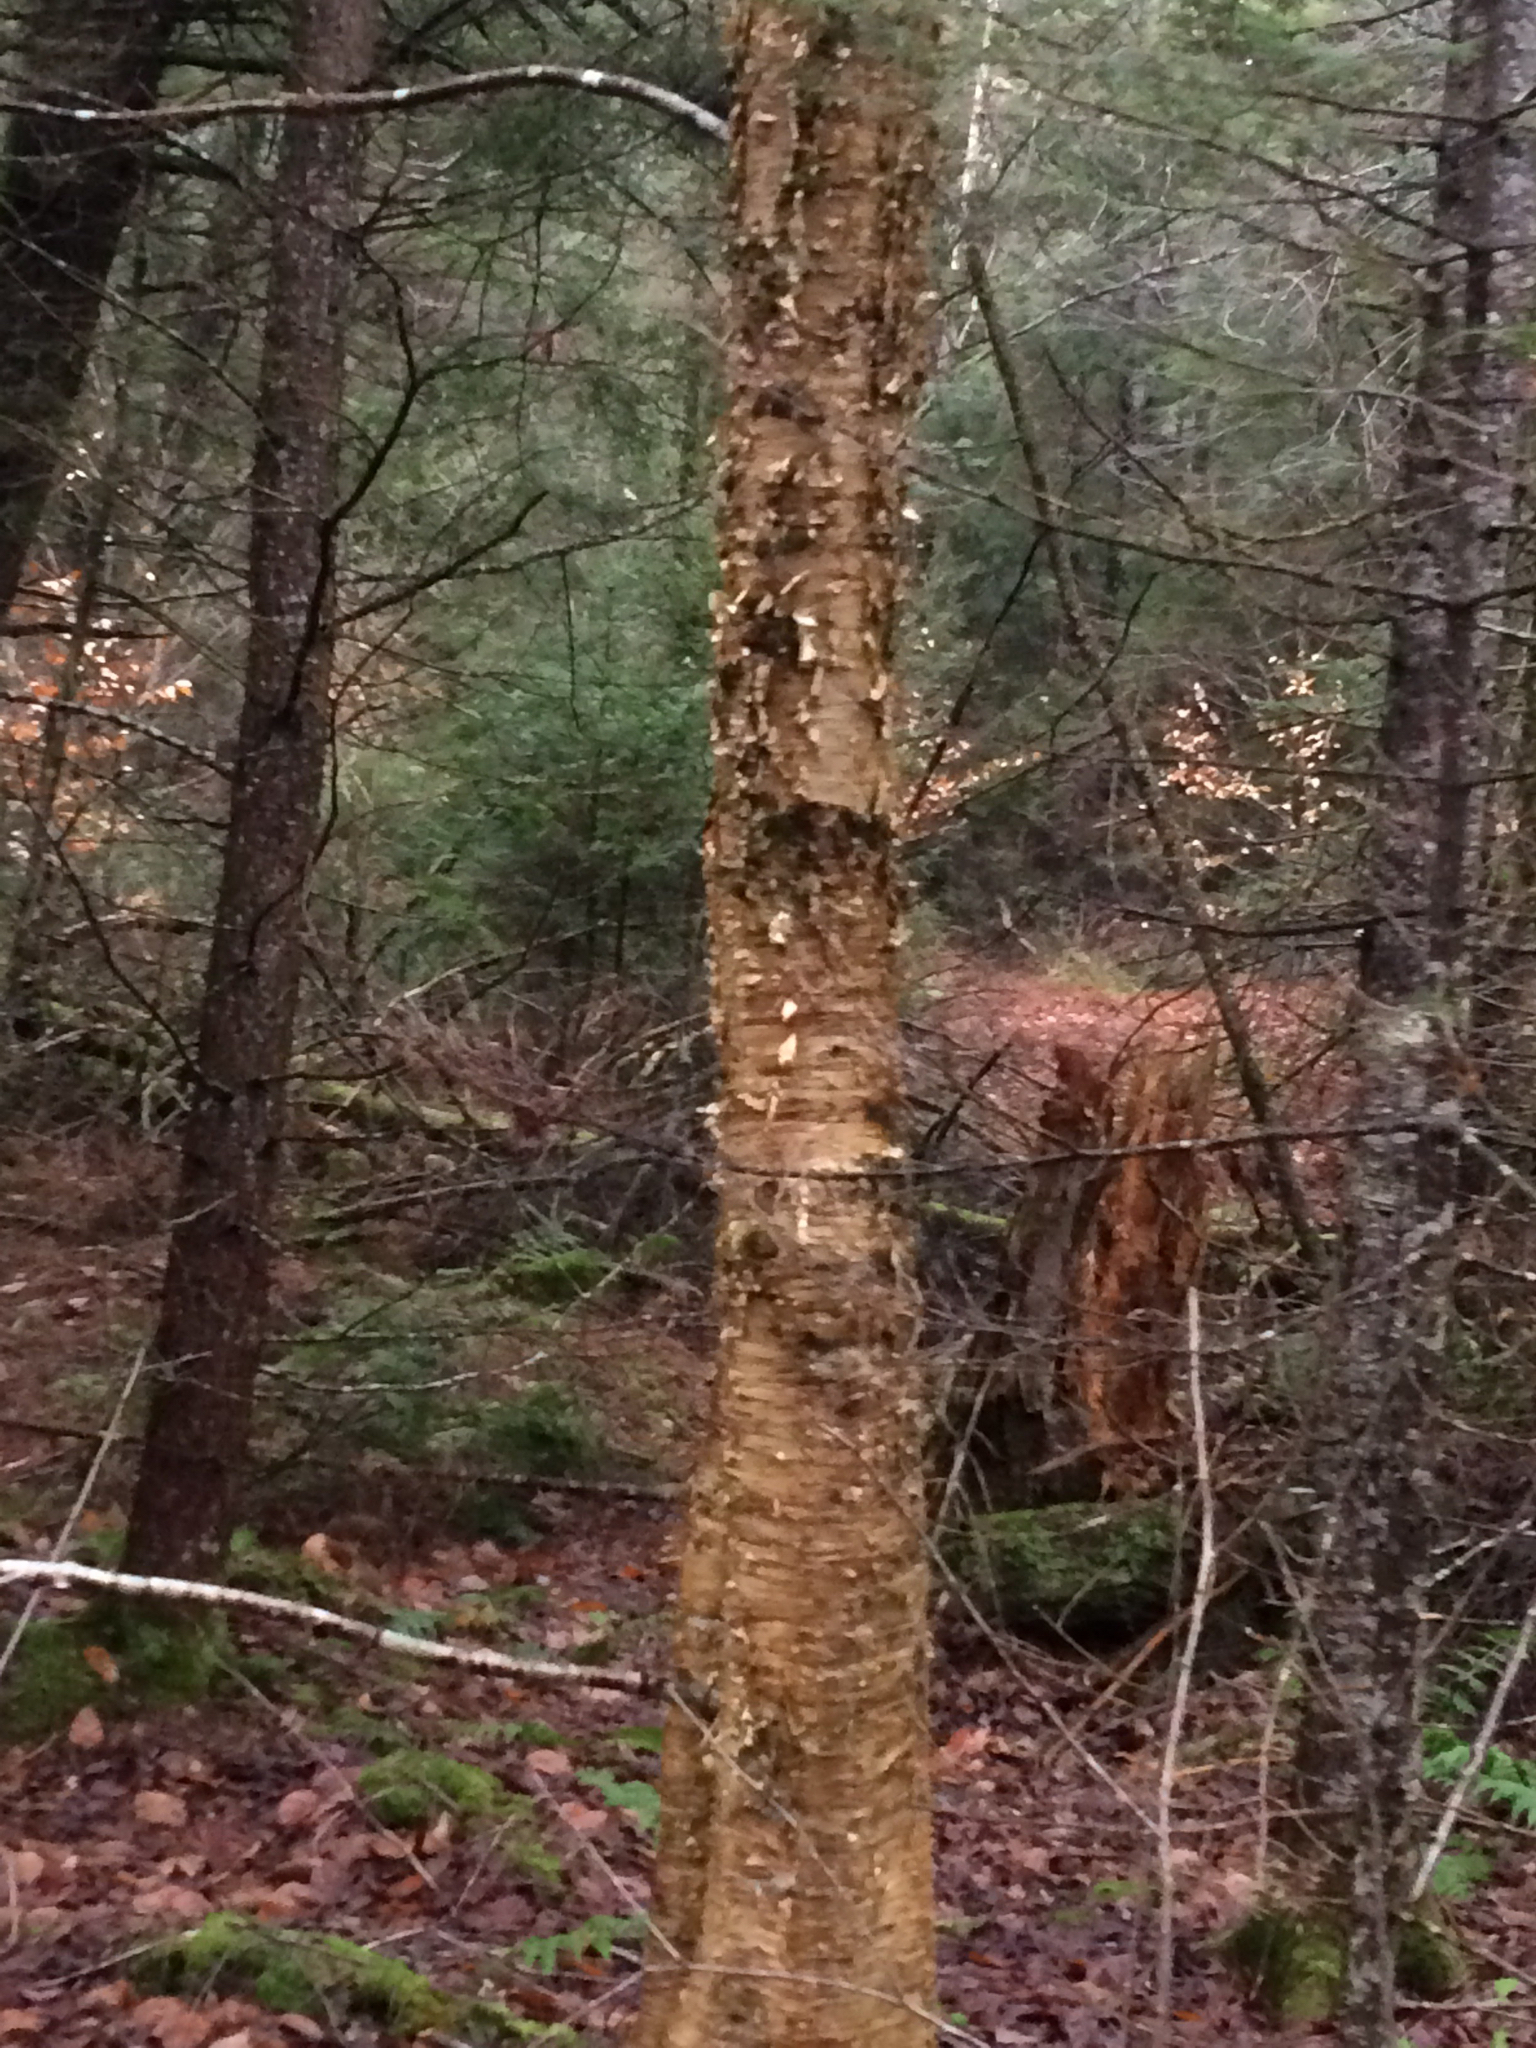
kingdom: Plantae
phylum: Tracheophyta
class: Magnoliopsida
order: Fagales
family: Betulaceae
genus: Betula
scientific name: Betula alleghaniensis
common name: Yellow birch
